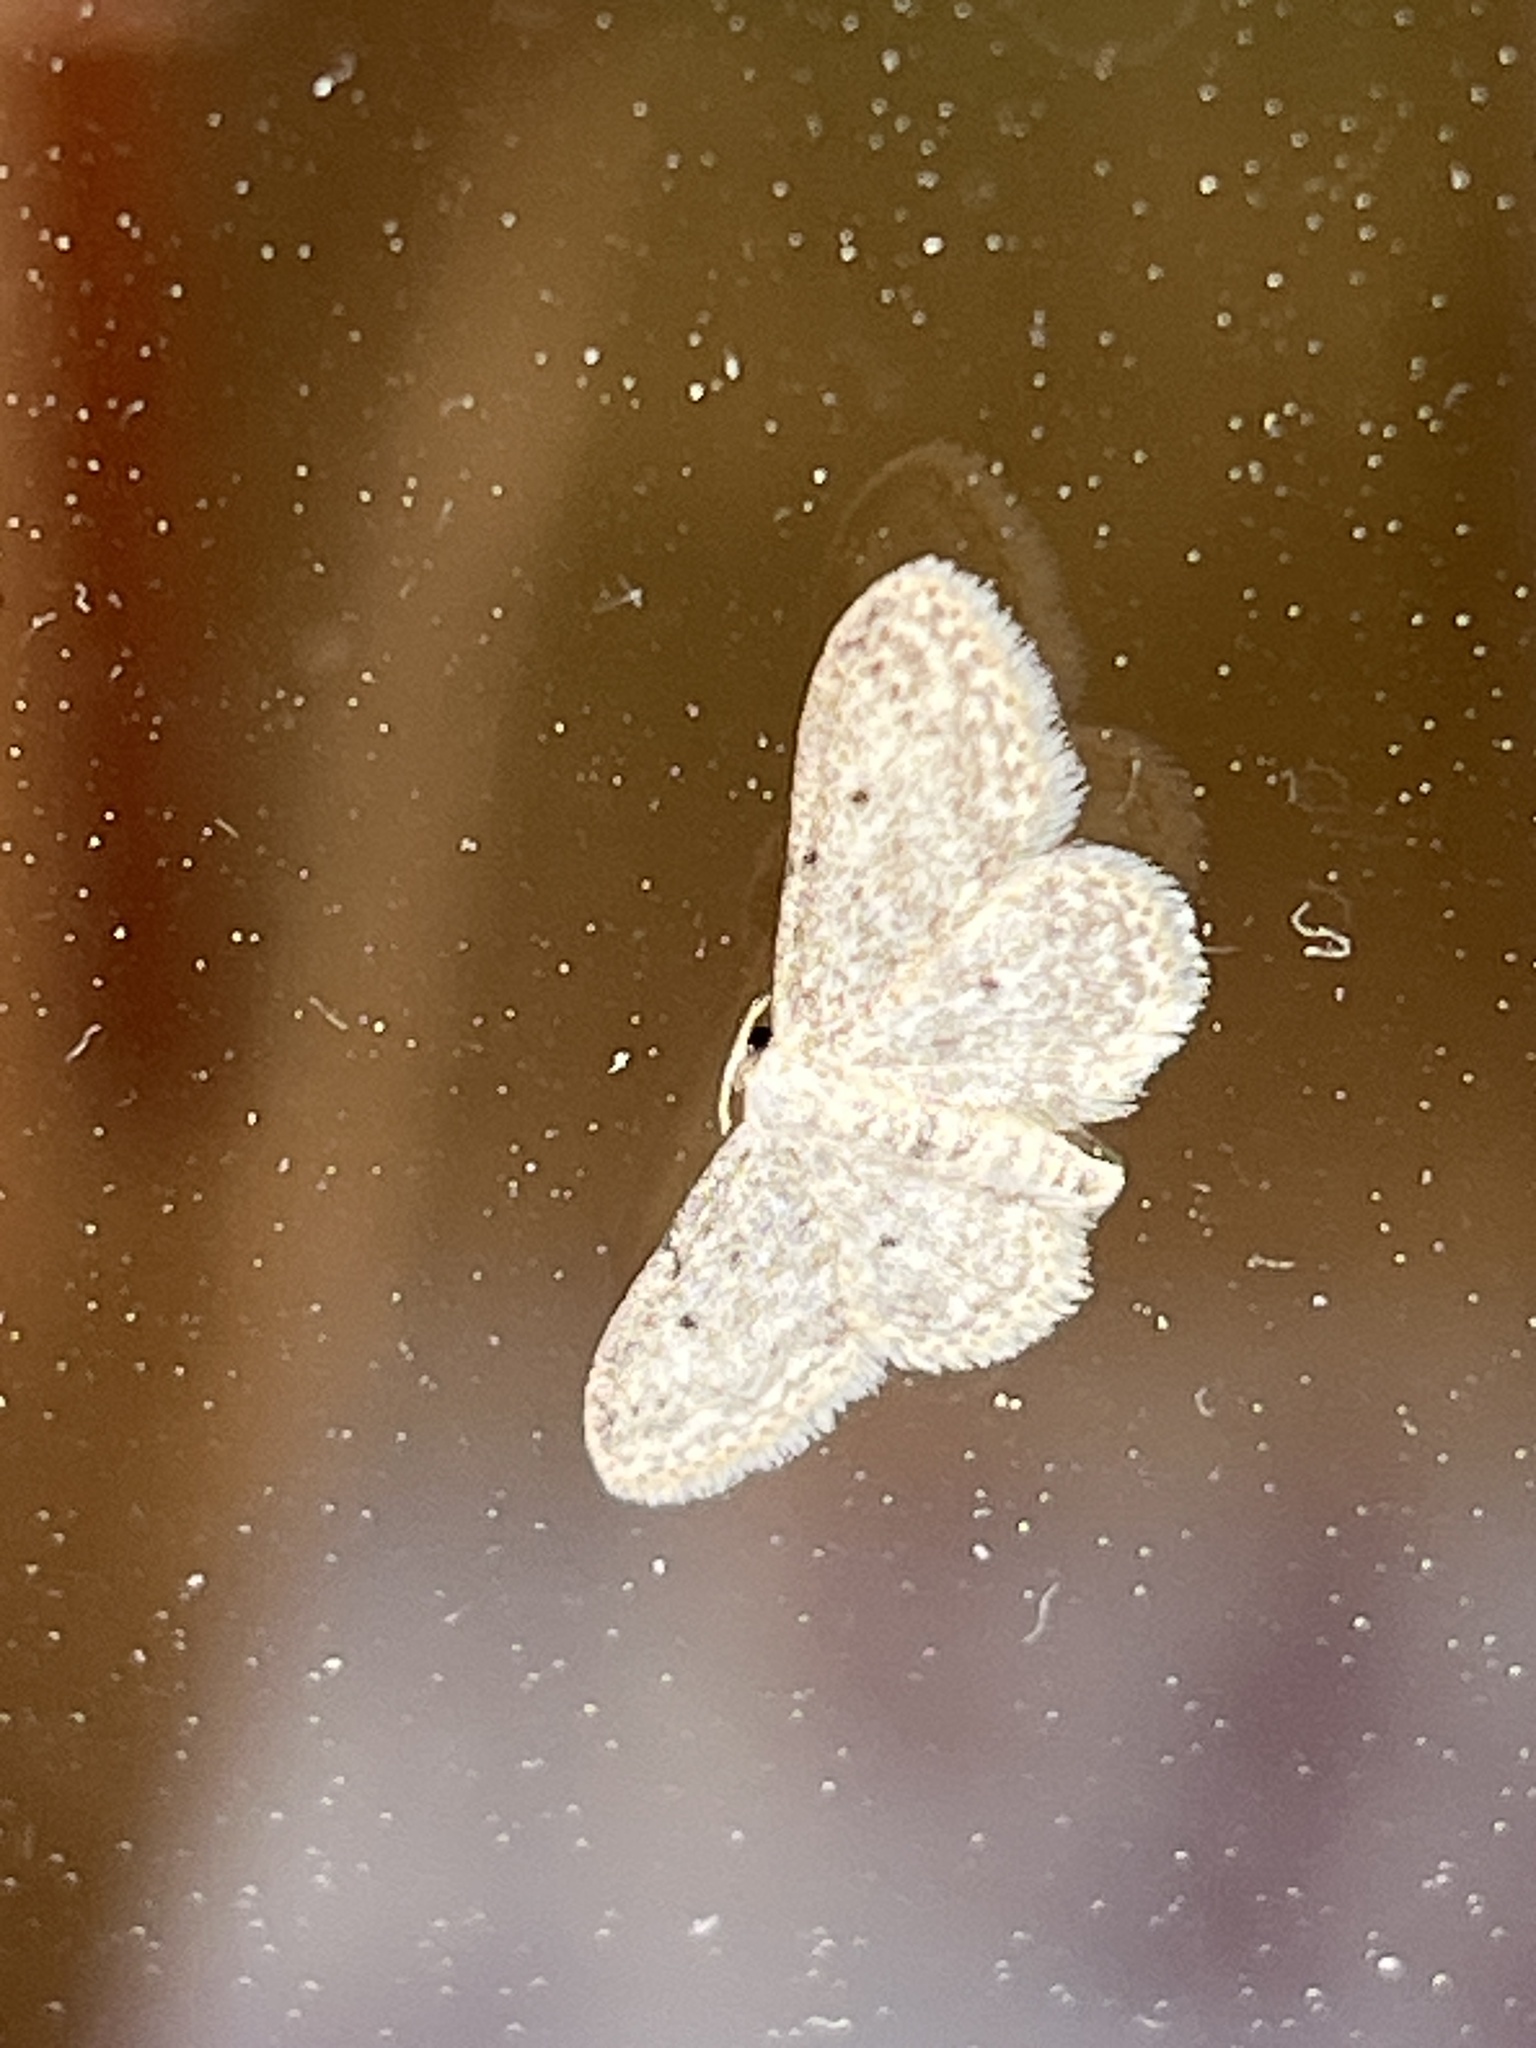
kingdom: Animalia
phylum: Arthropoda
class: Insecta
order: Lepidoptera
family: Geometridae
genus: Idaea
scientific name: Idaea seriata
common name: Small dusty wave
